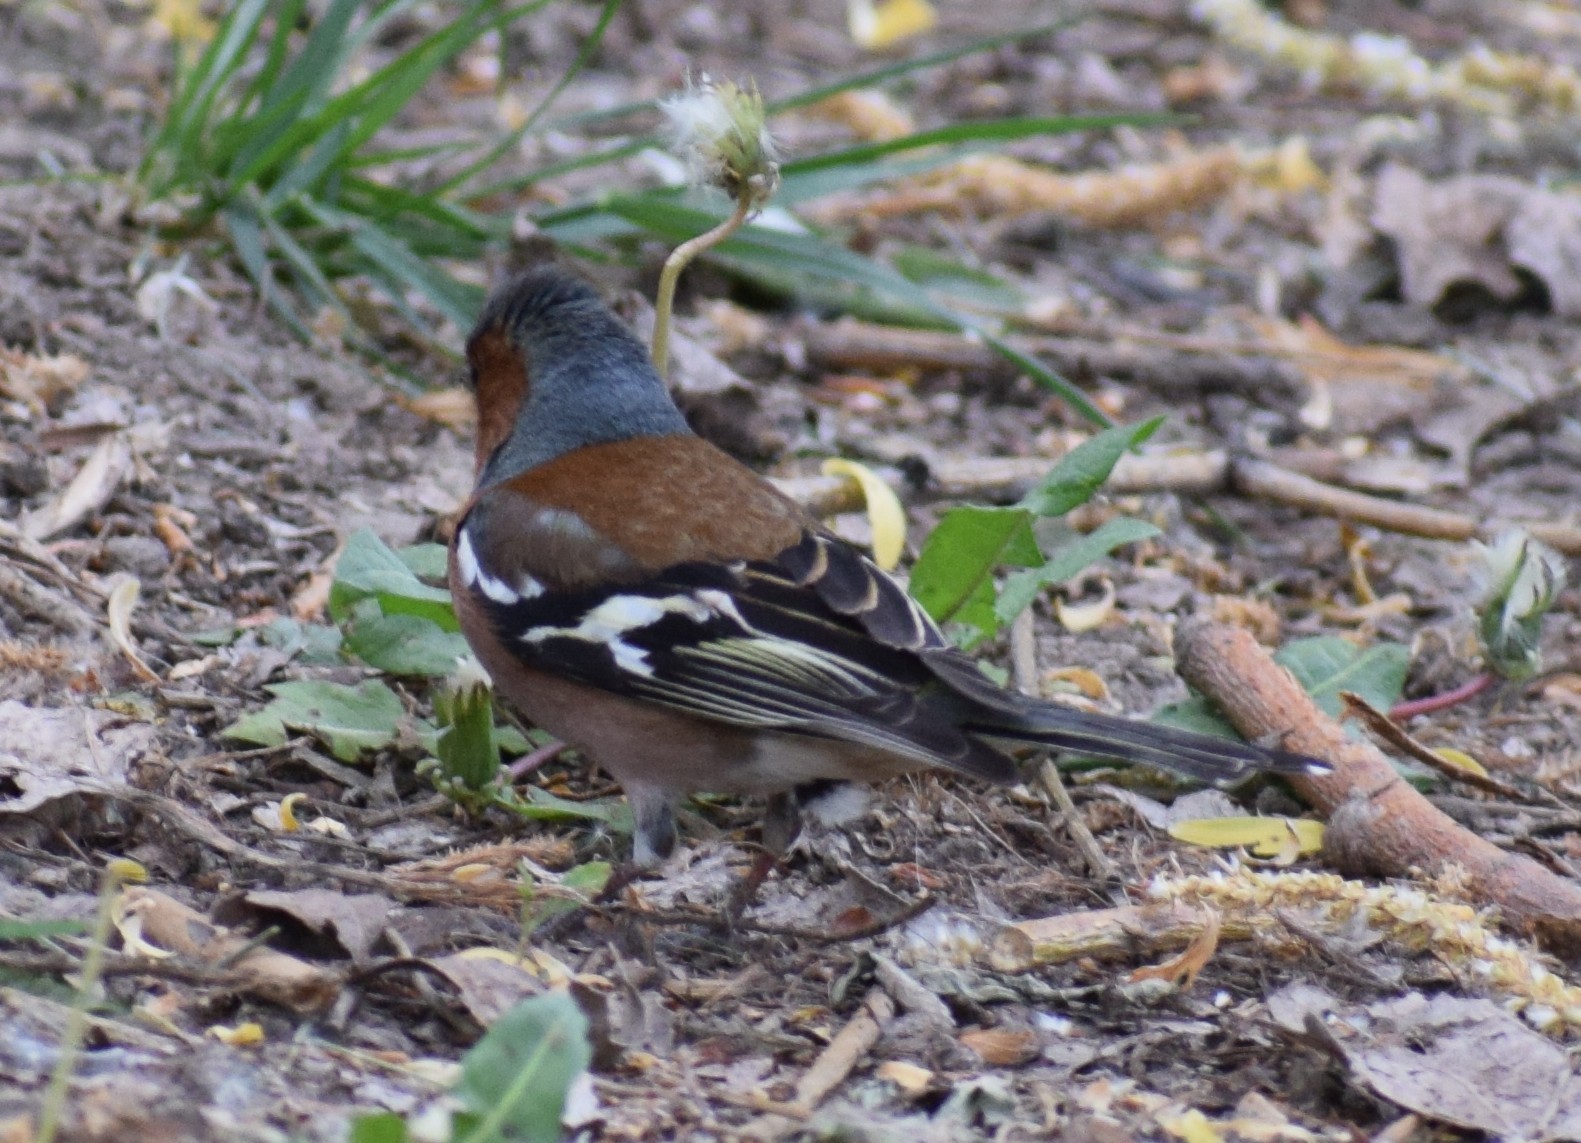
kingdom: Animalia
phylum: Chordata
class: Aves
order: Passeriformes
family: Fringillidae
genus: Fringilla
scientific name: Fringilla coelebs
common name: Common chaffinch
